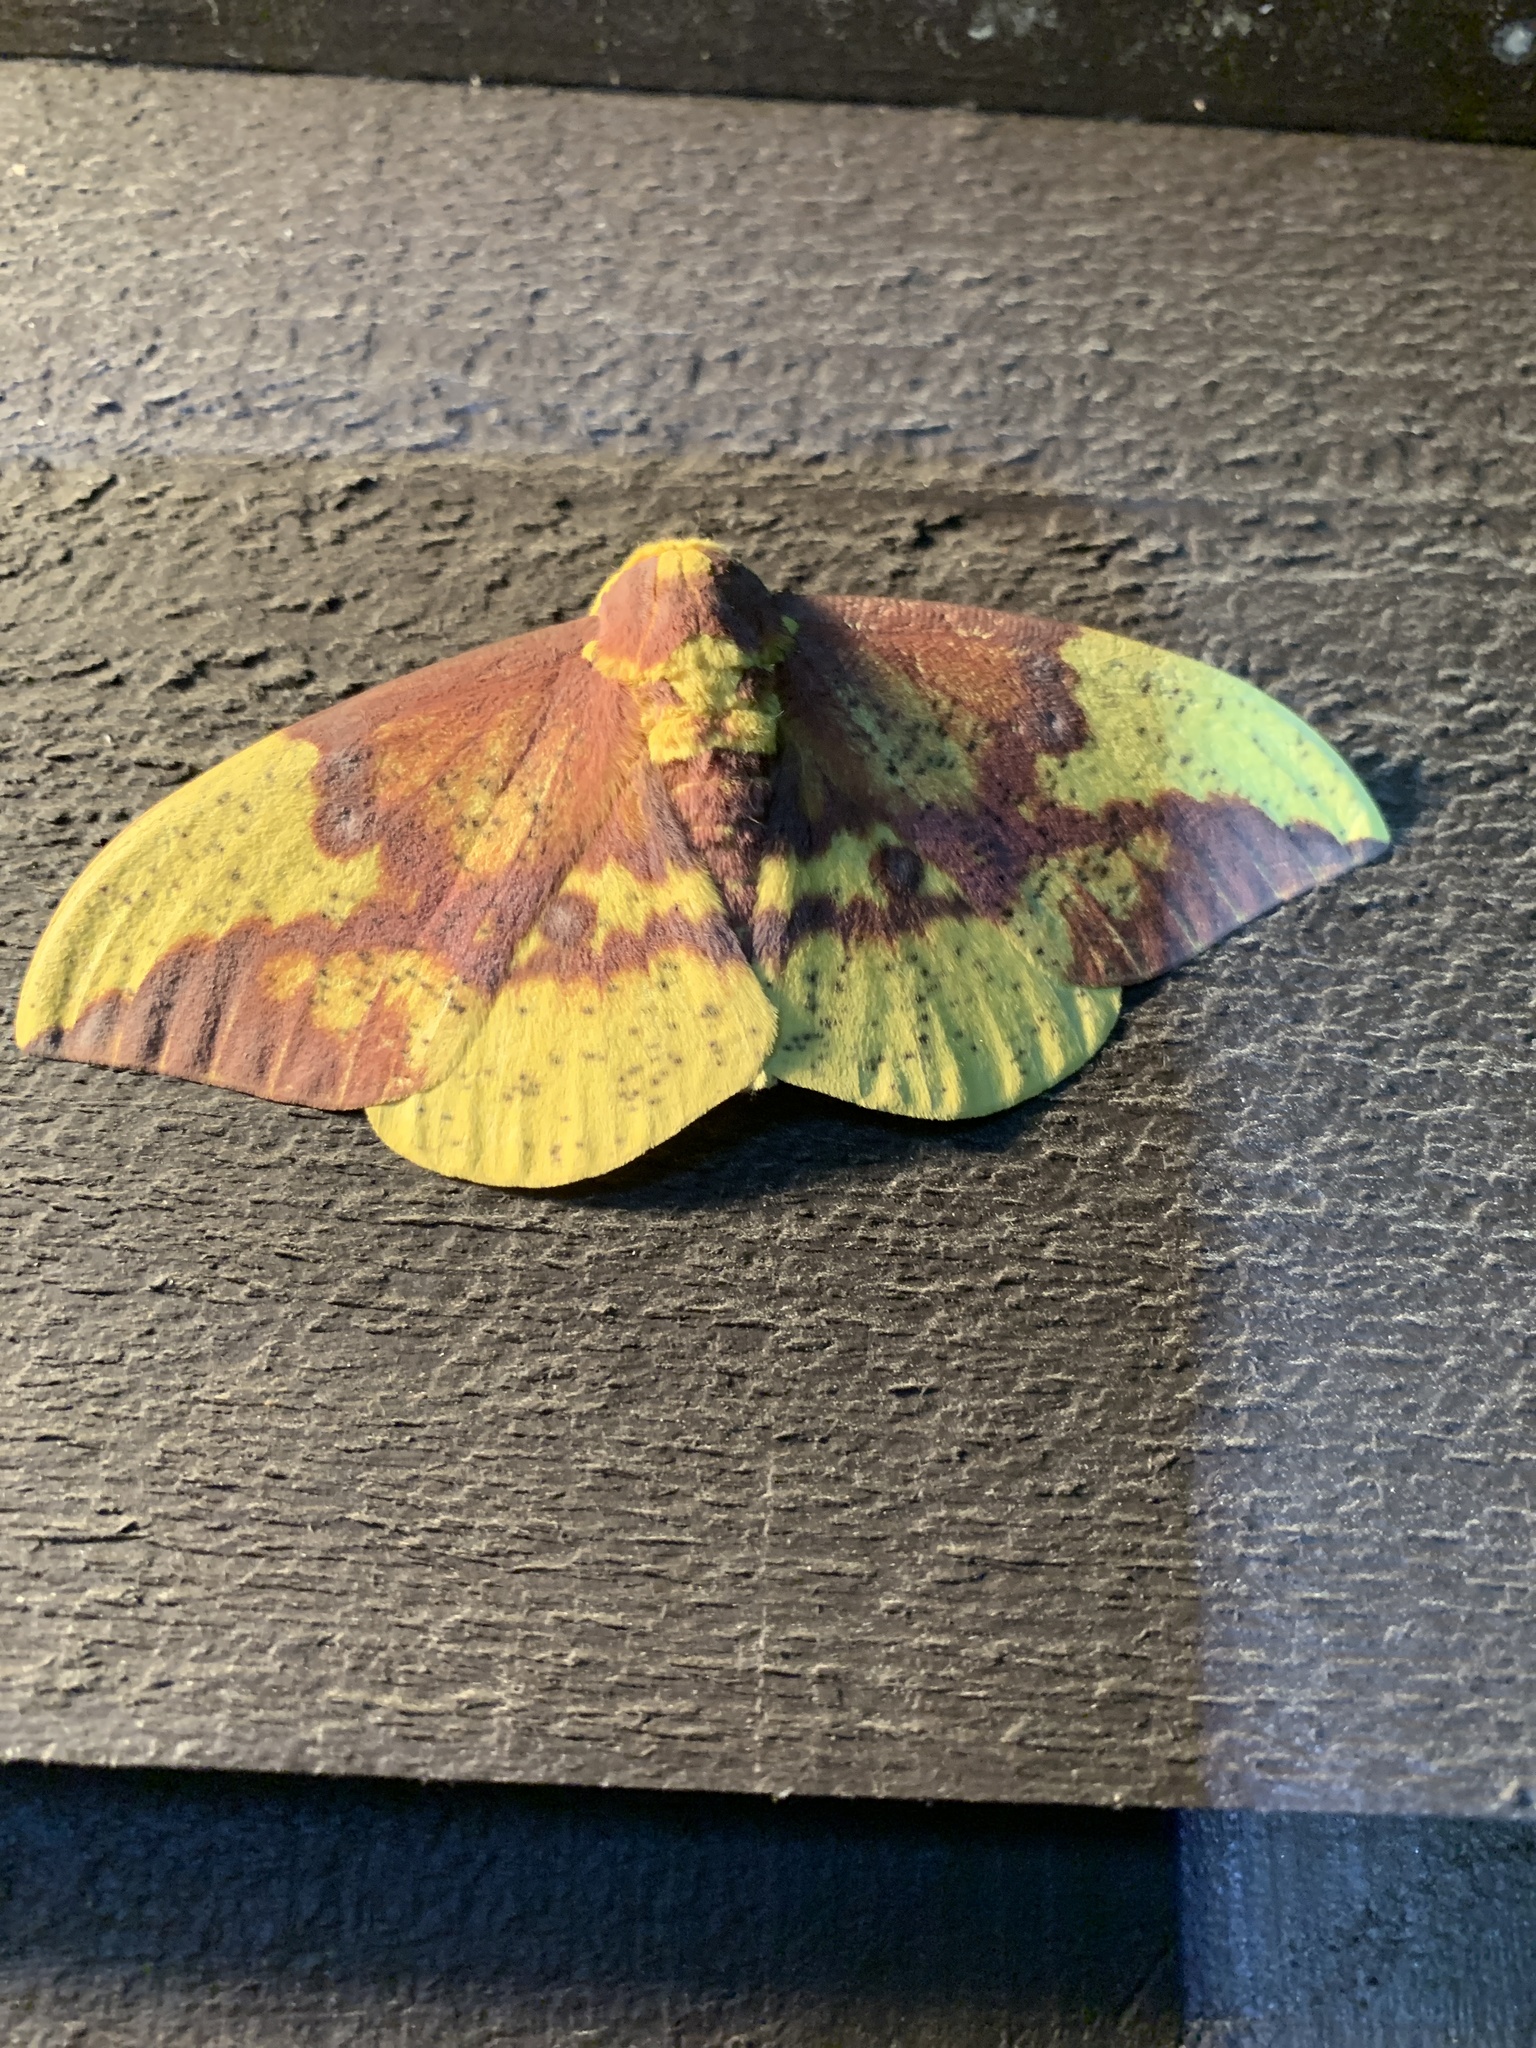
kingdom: Animalia
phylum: Arthropoda
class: Insecta
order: Lepidoptera
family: Saturniidae
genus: Eacles
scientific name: Eacles imperialis
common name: Imperial moth
